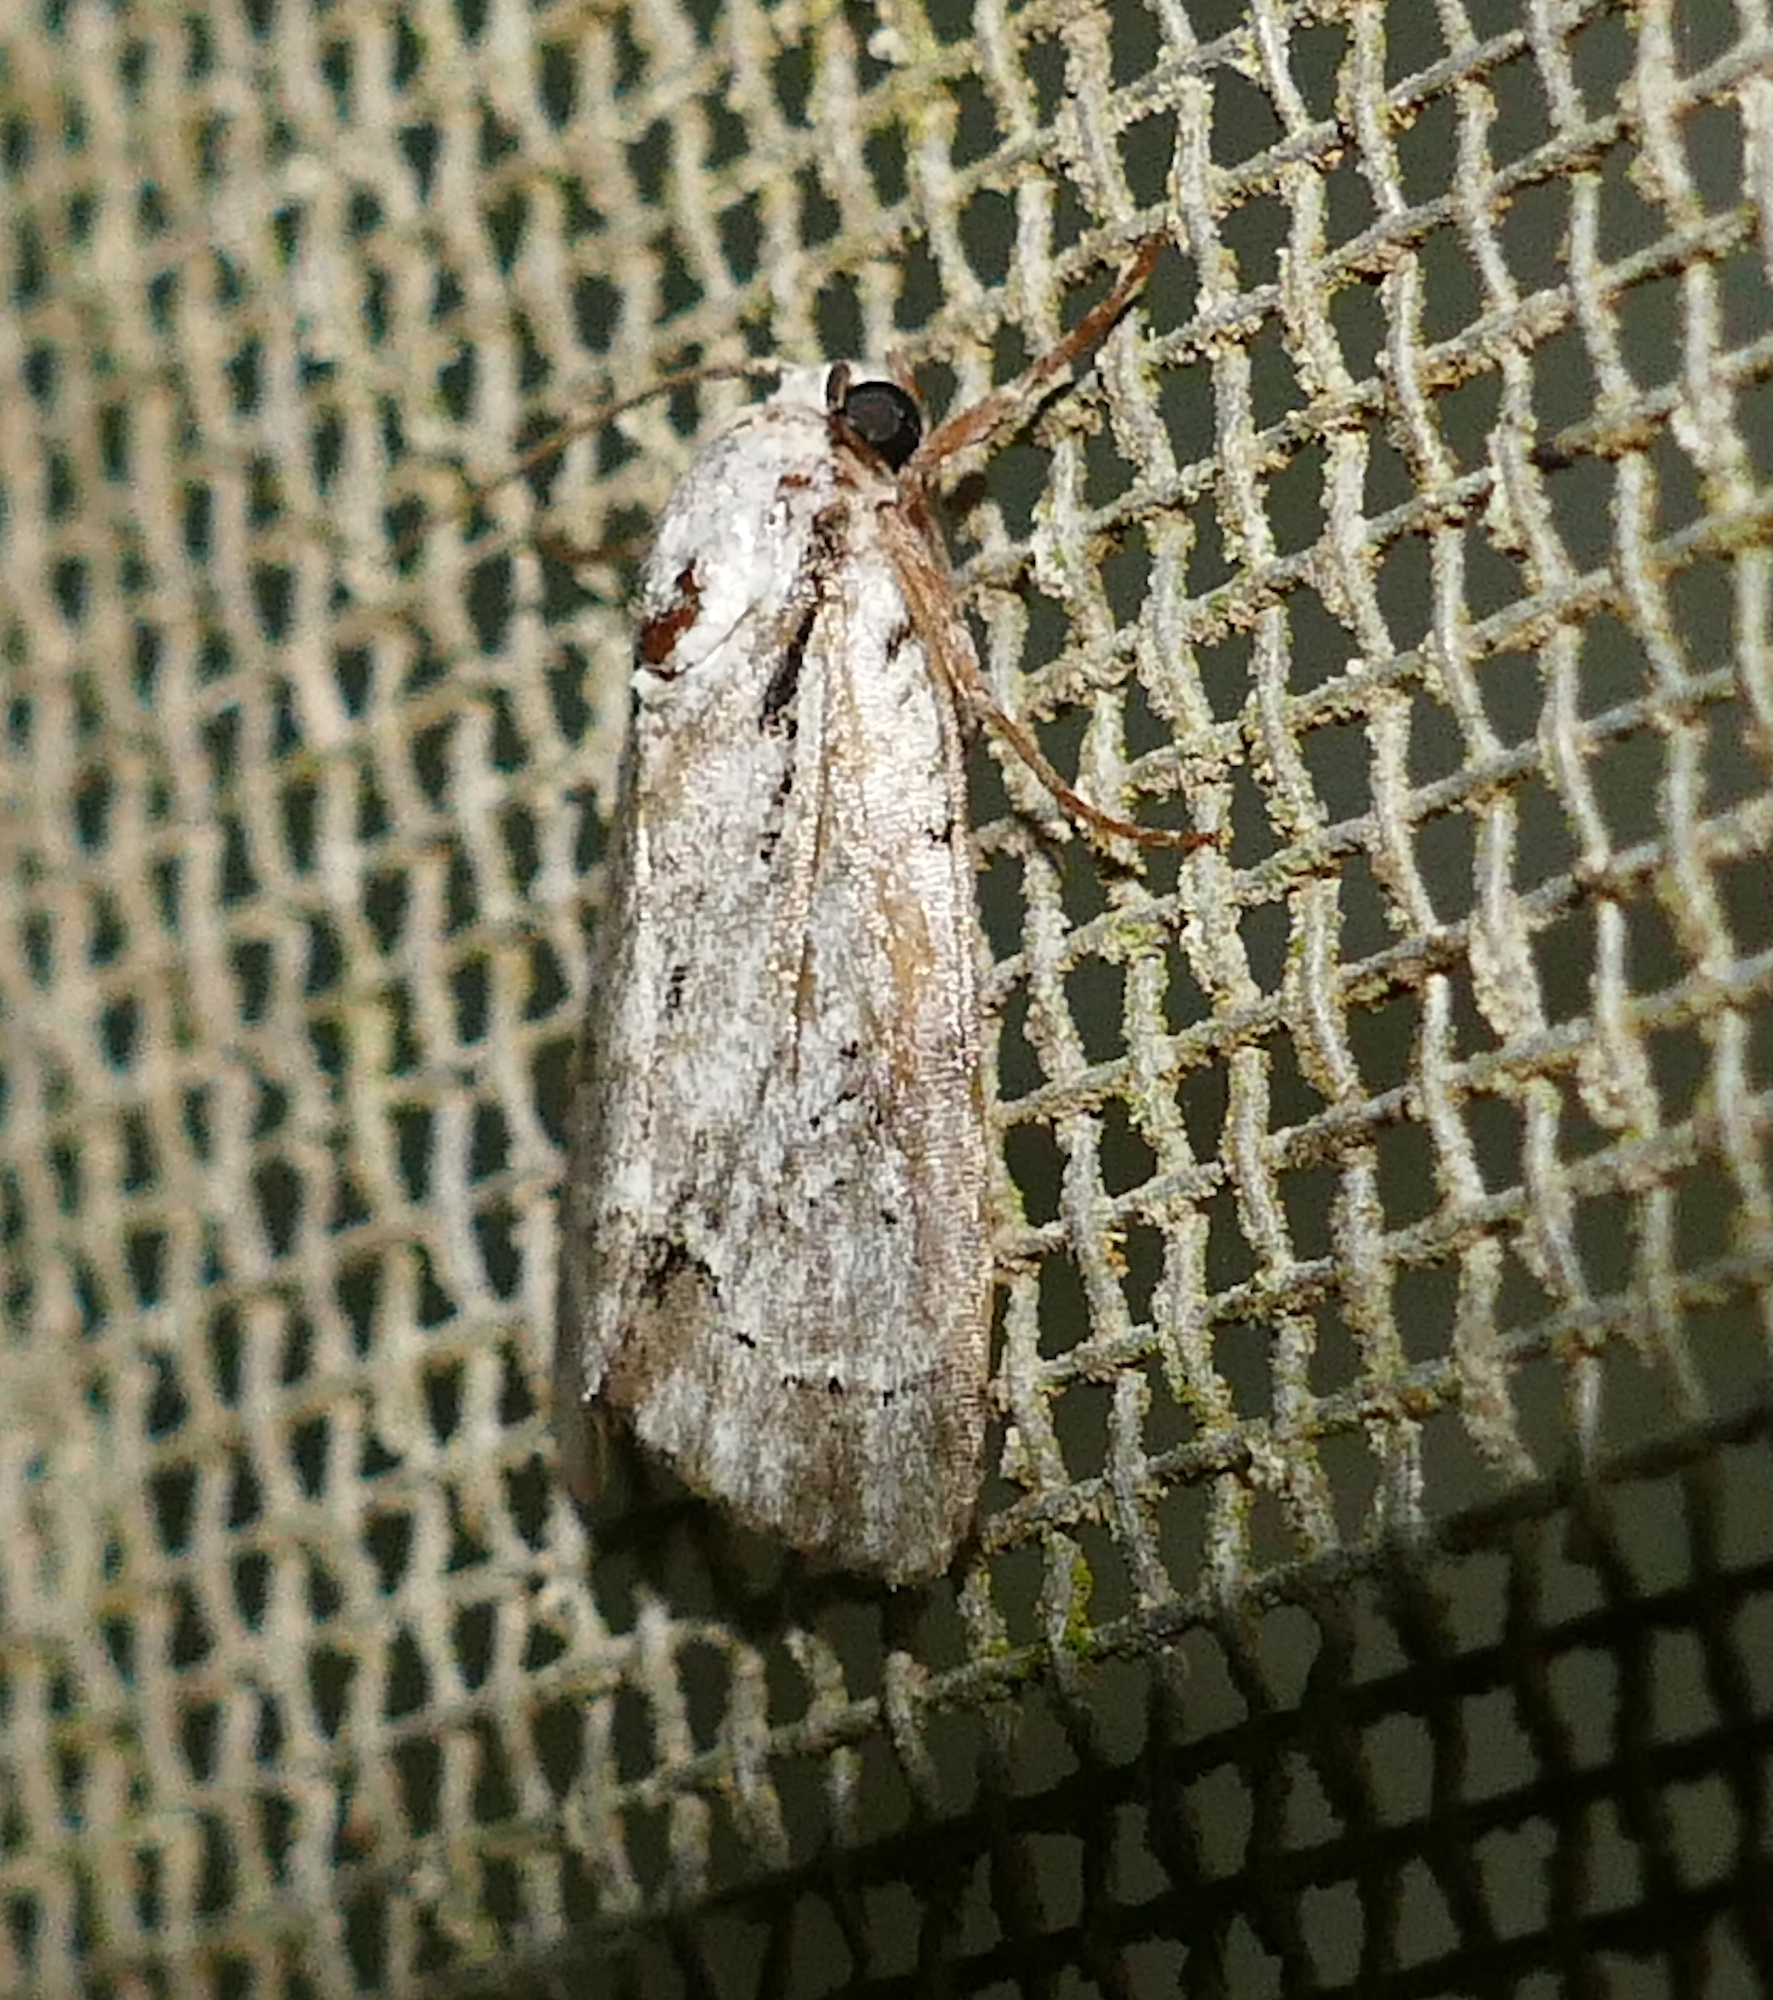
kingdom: Animalia
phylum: Arthropoda
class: Insecta
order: Lepidoptera
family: Noctuidae
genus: Acronicta
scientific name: Acronicta vinnula
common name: Delightful dagger
